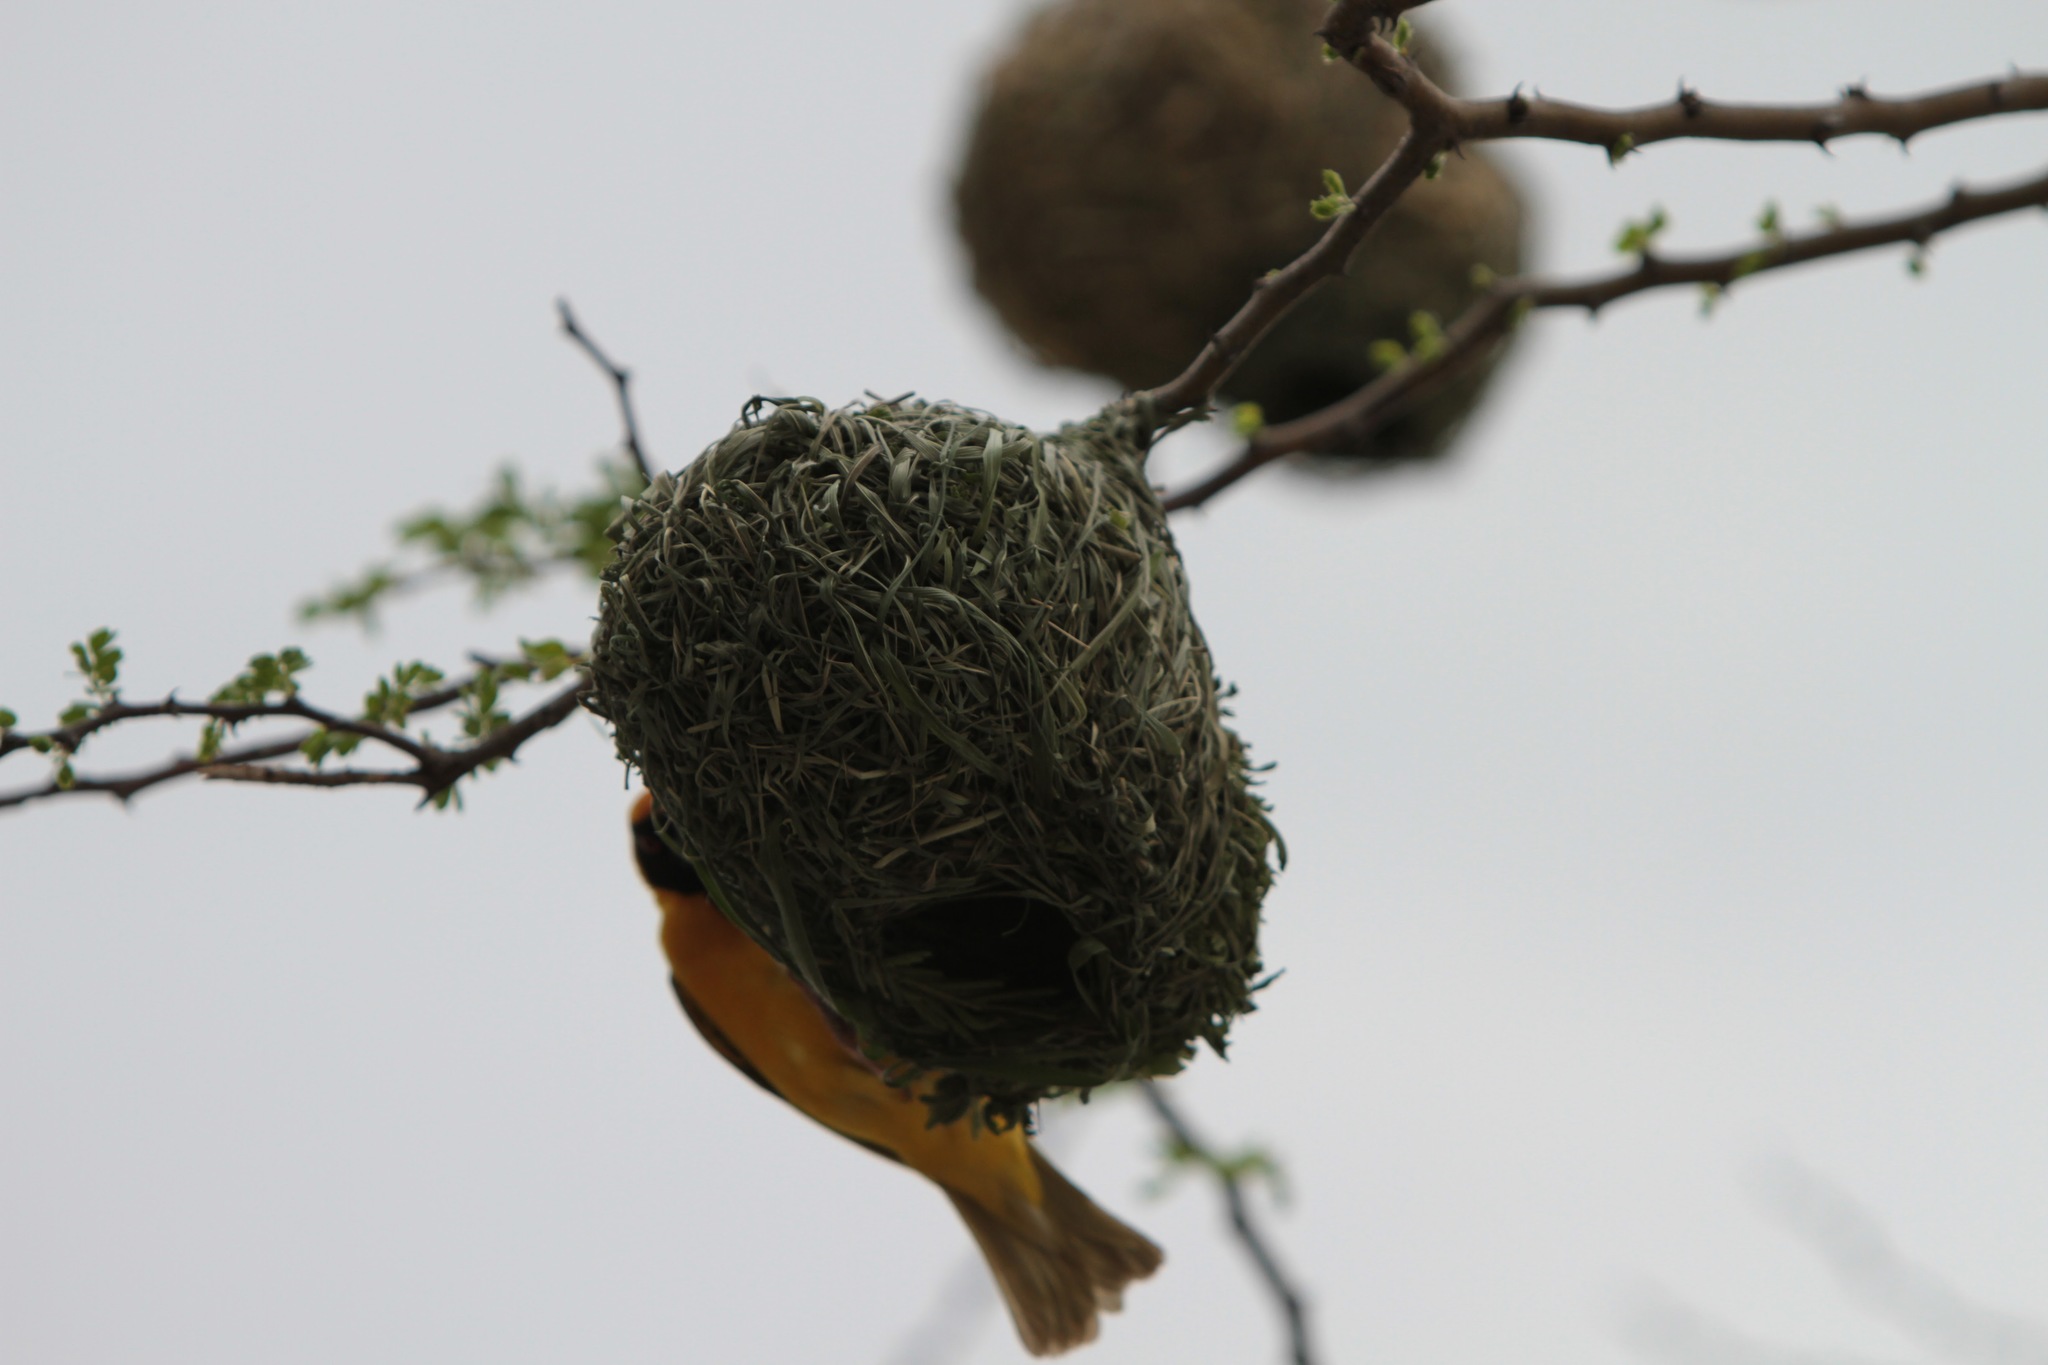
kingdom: Animalia
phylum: Chordata
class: Aves
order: Passeriformes
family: Ploceidae
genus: Ploceus
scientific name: Ploceus velatus
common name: Southern masked weaver
